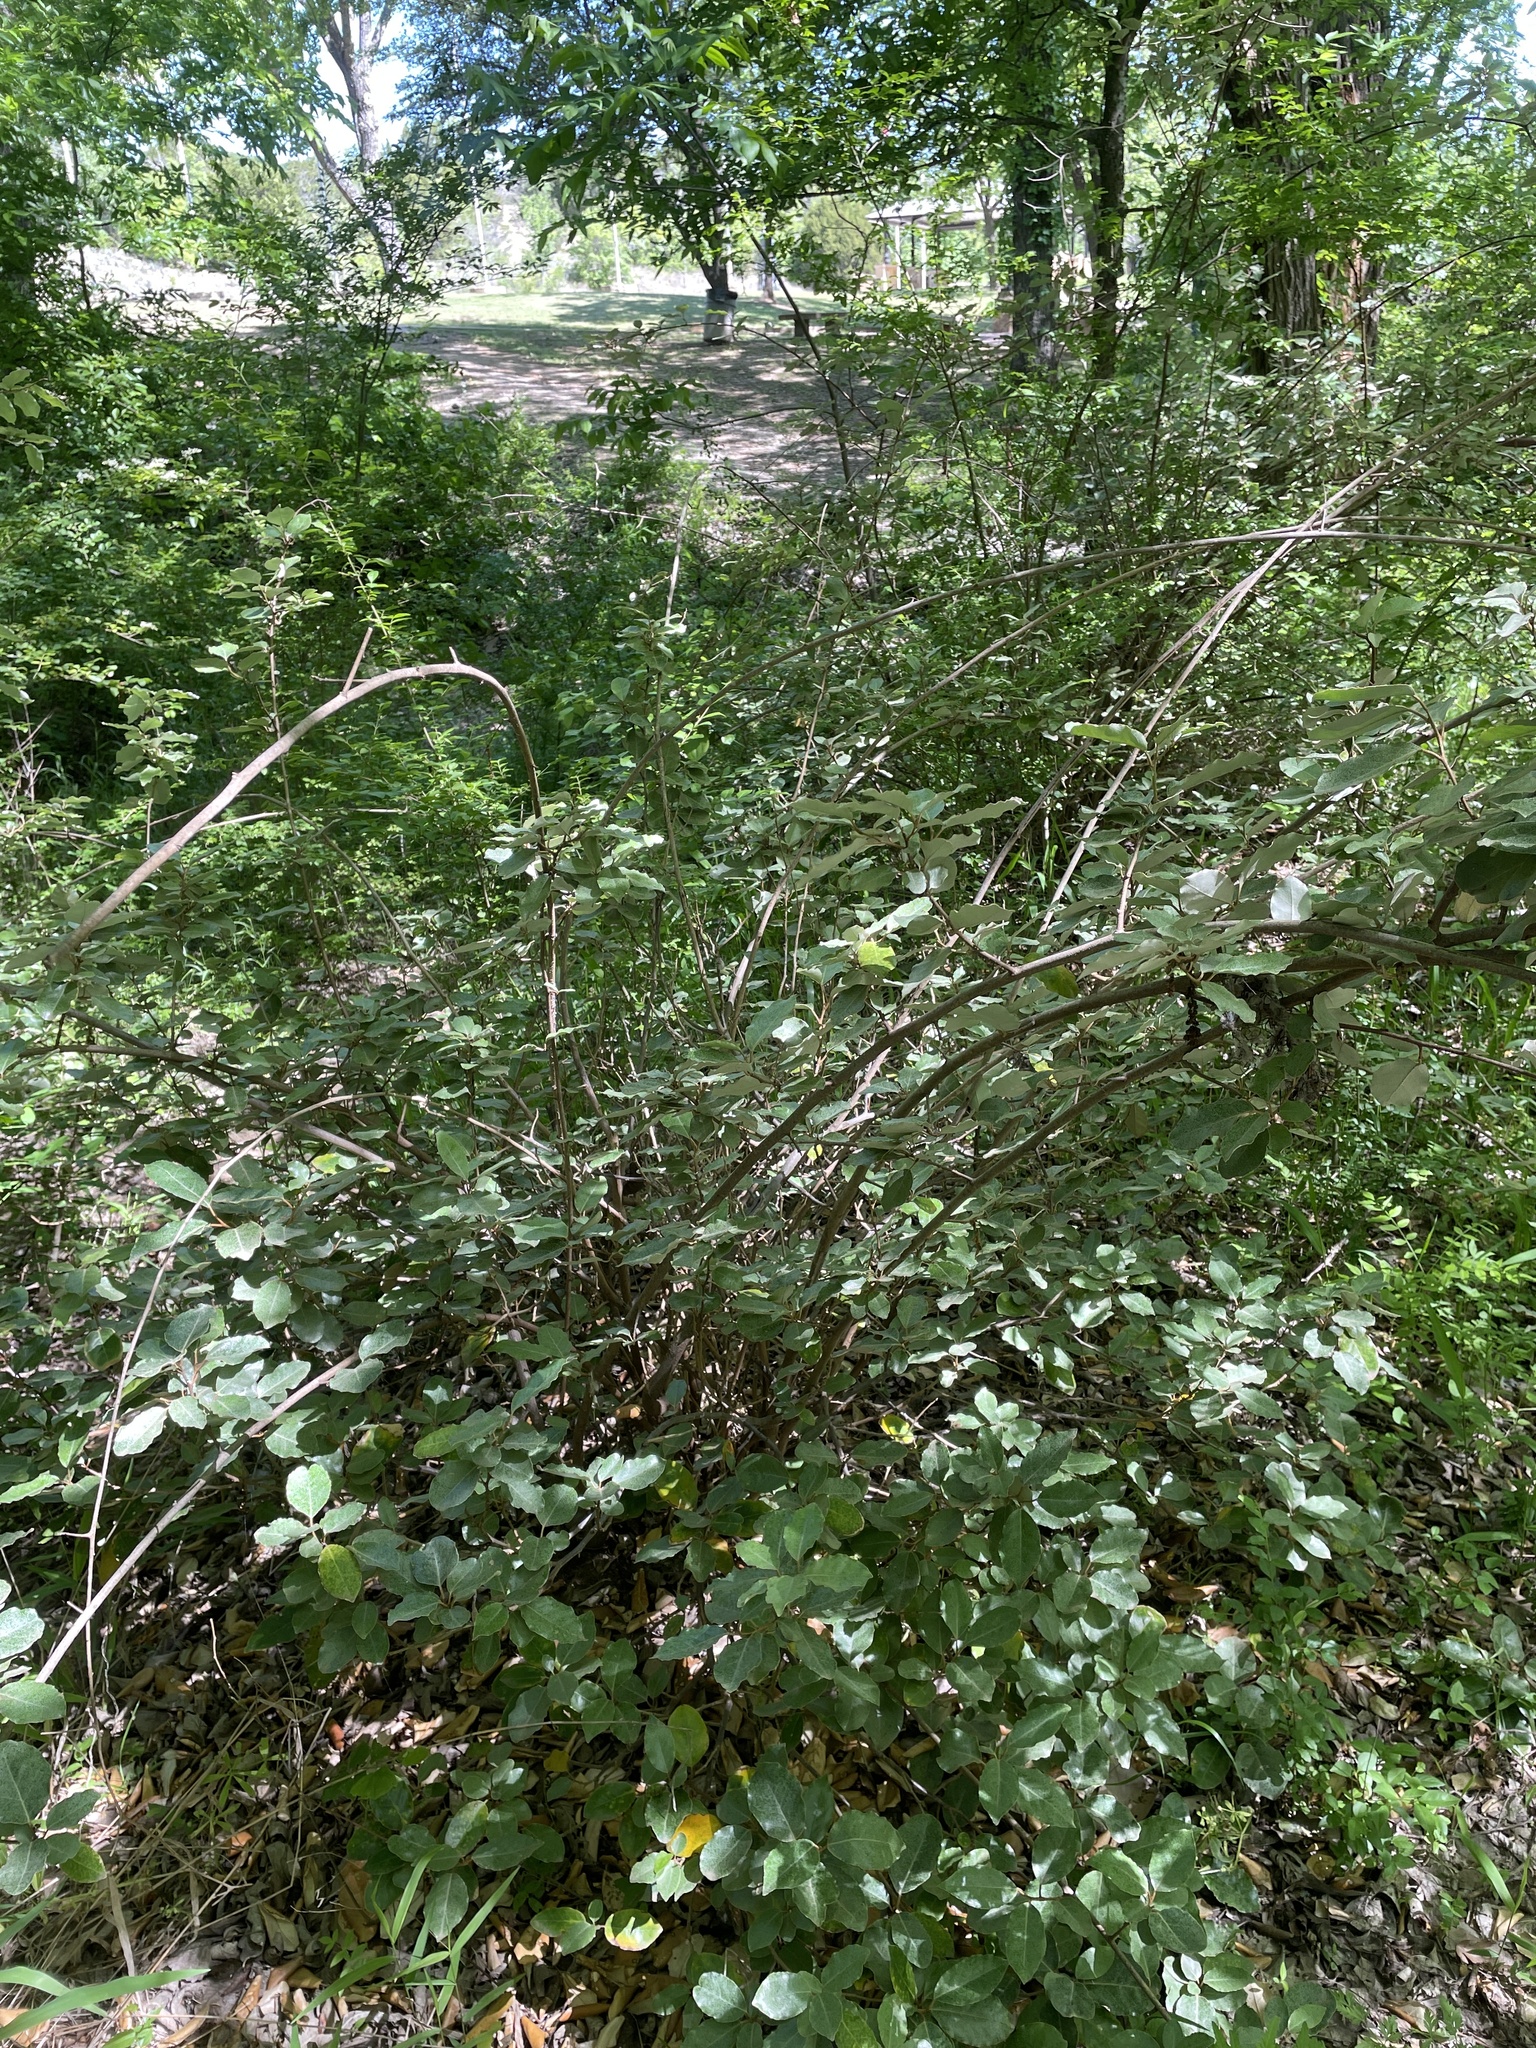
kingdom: Plantae
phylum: Tracheophyta
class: Magnoliopsida
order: Rosales
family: Elaeagnaceae
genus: Elaeagnus
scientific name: Elaeagnus pungens
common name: Spiny oleaster
